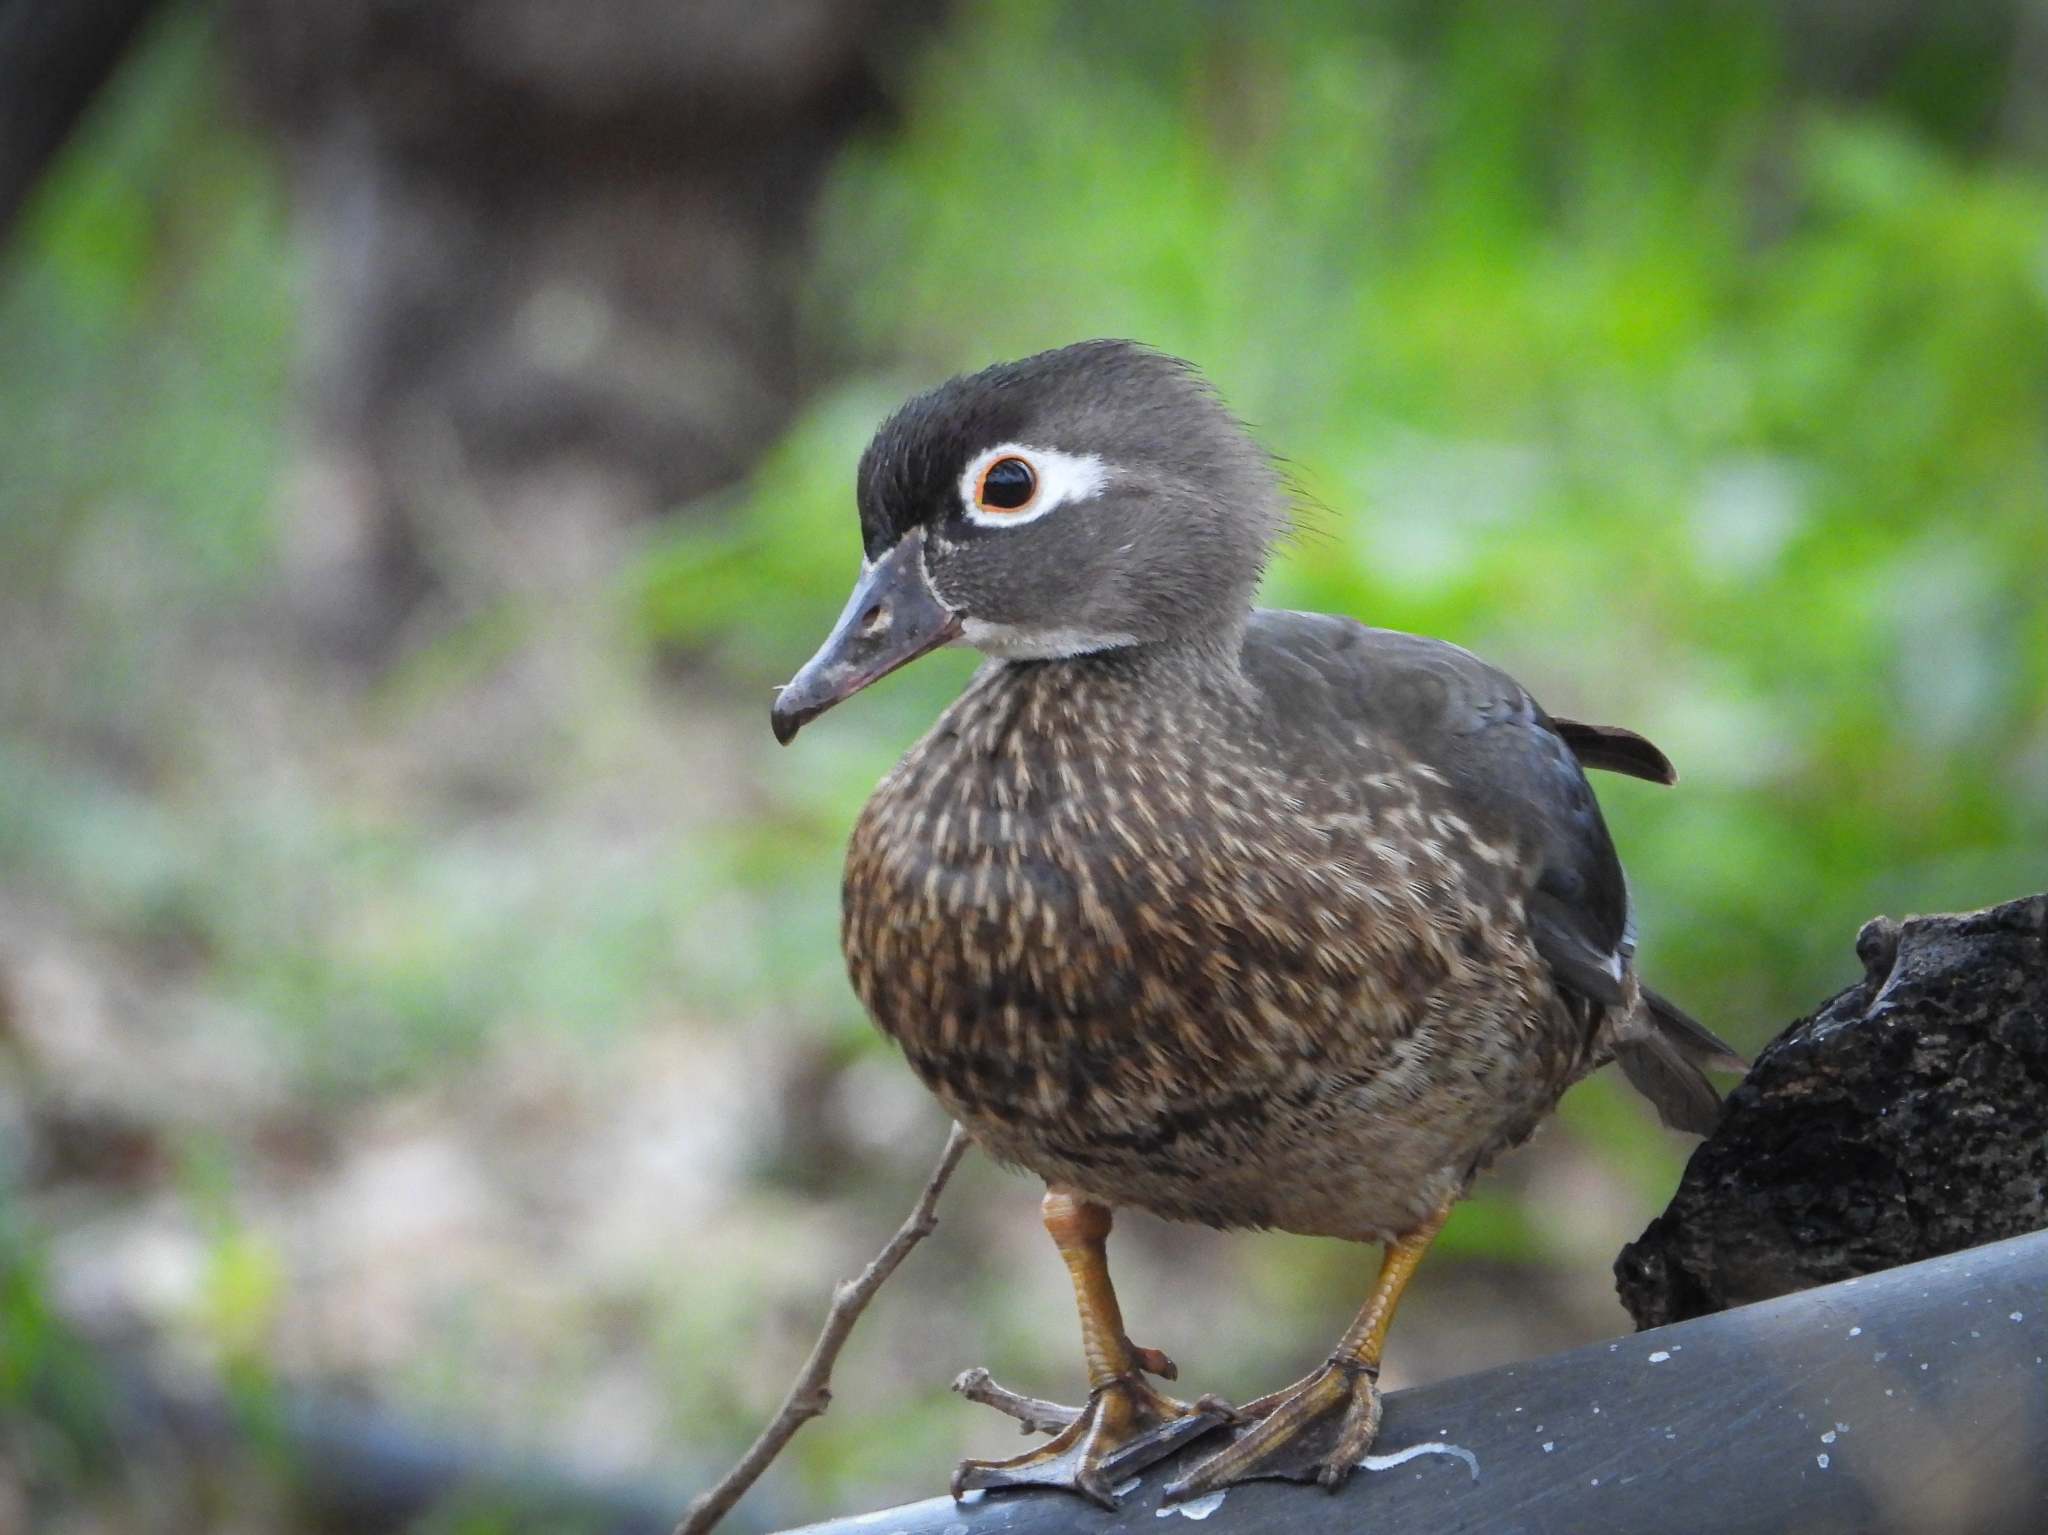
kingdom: Animalia
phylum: Chordata
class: Aves
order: Anseriformes
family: Anatidae
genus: Aix
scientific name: Aix sponsa
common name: Wood duck
